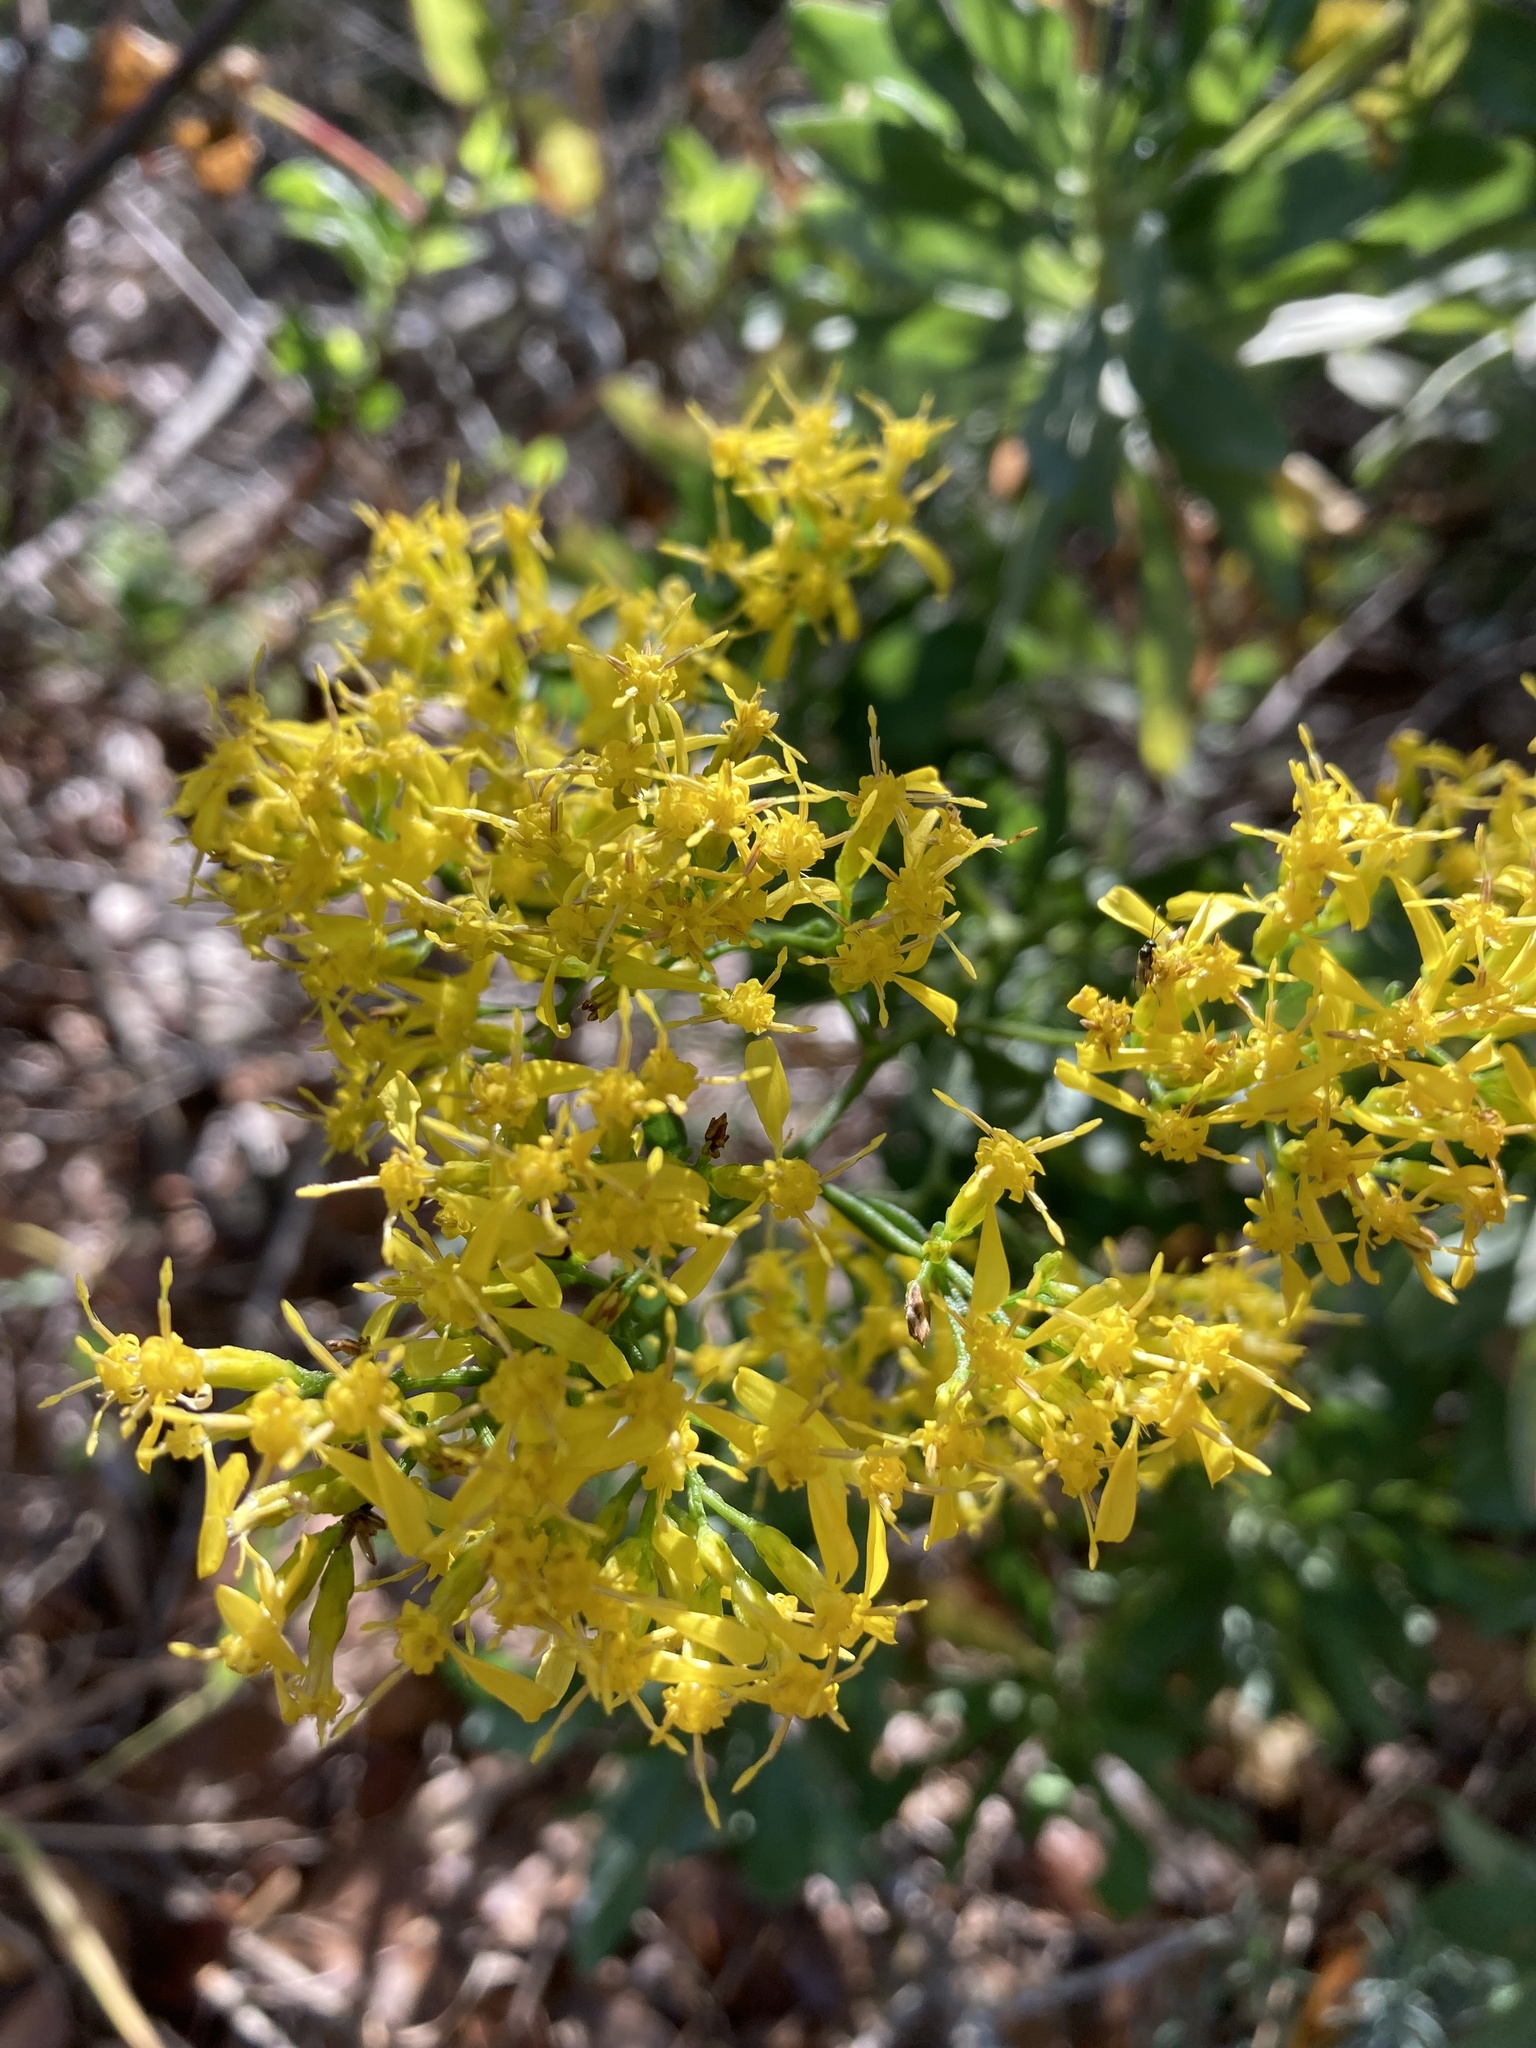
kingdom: Plantae
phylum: Tracheophyta
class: Magnoliopsida
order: Asterales
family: Asteraceae
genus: Chrysoma
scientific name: Chrysoma pauciflosculosa
